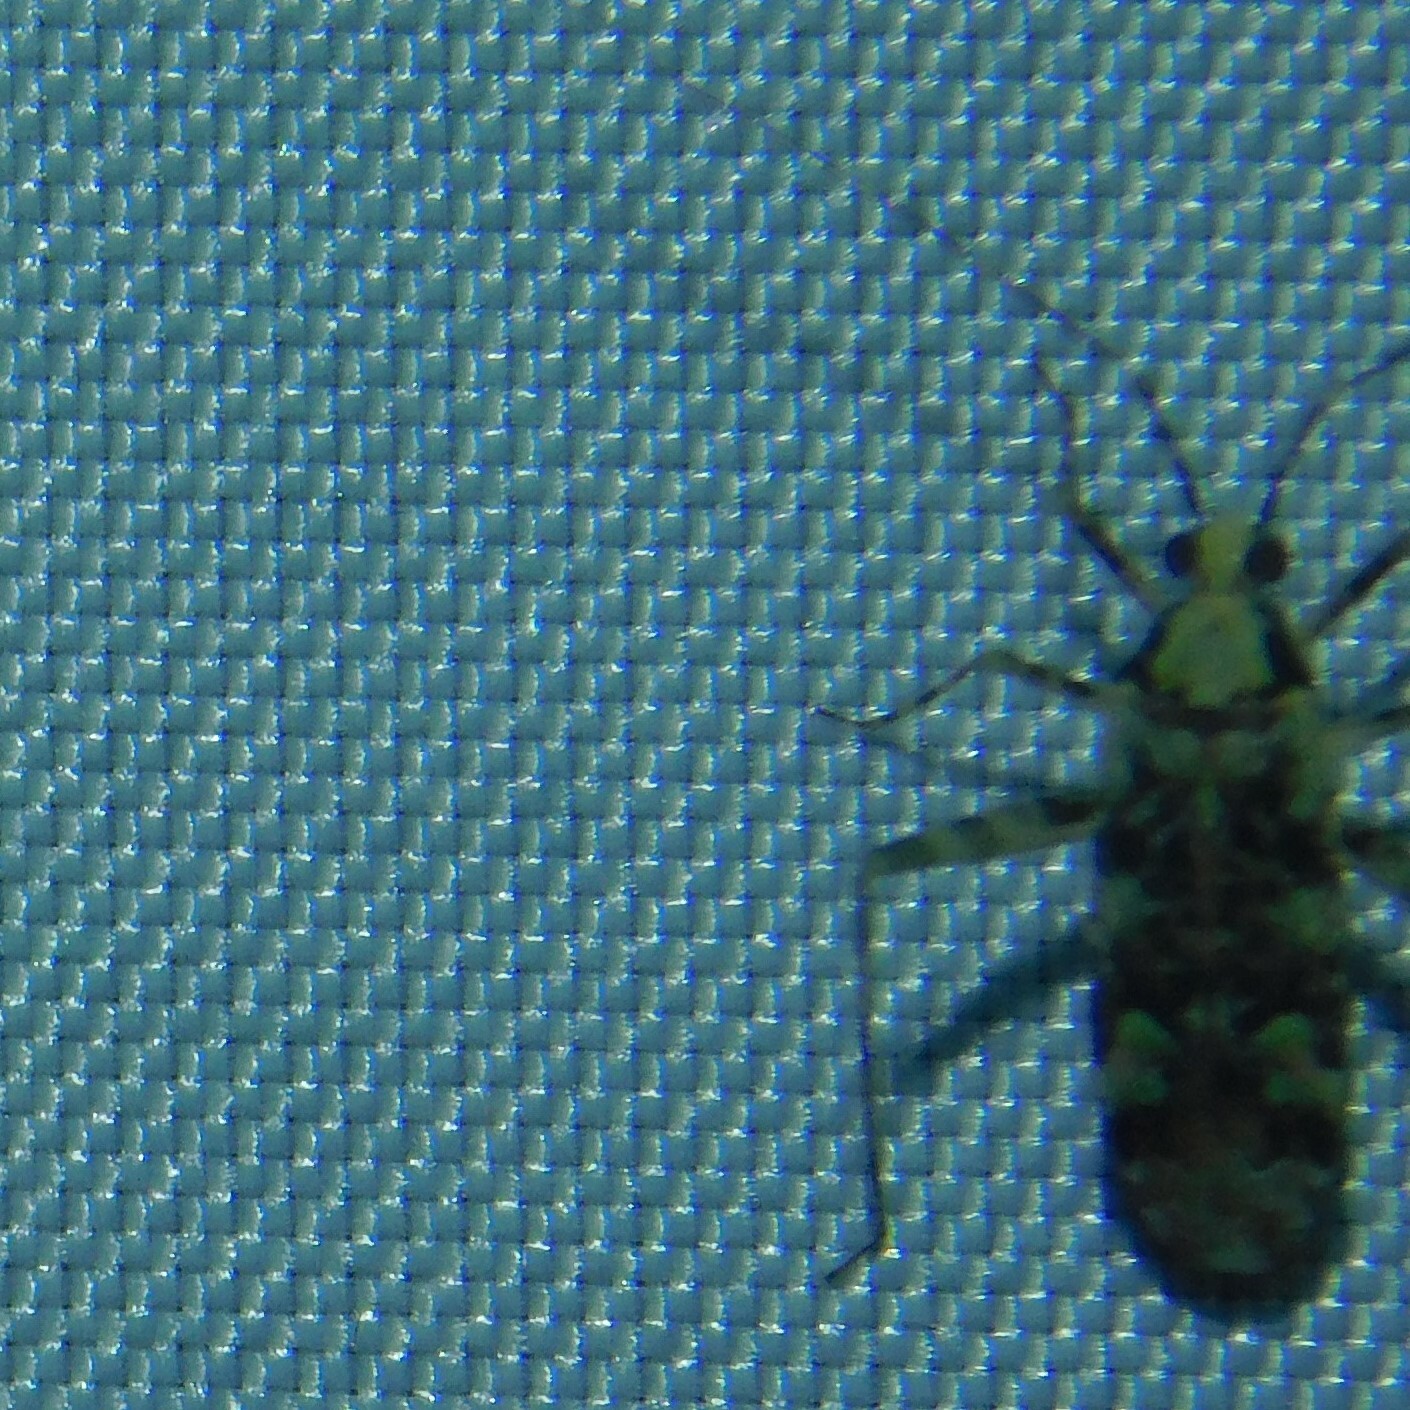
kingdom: Animalia
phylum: Arthropoda
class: Insecta
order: Hemiptera
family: Miridae
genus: Phytocoris
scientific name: Phytocoris tiliae
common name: Plant bug
